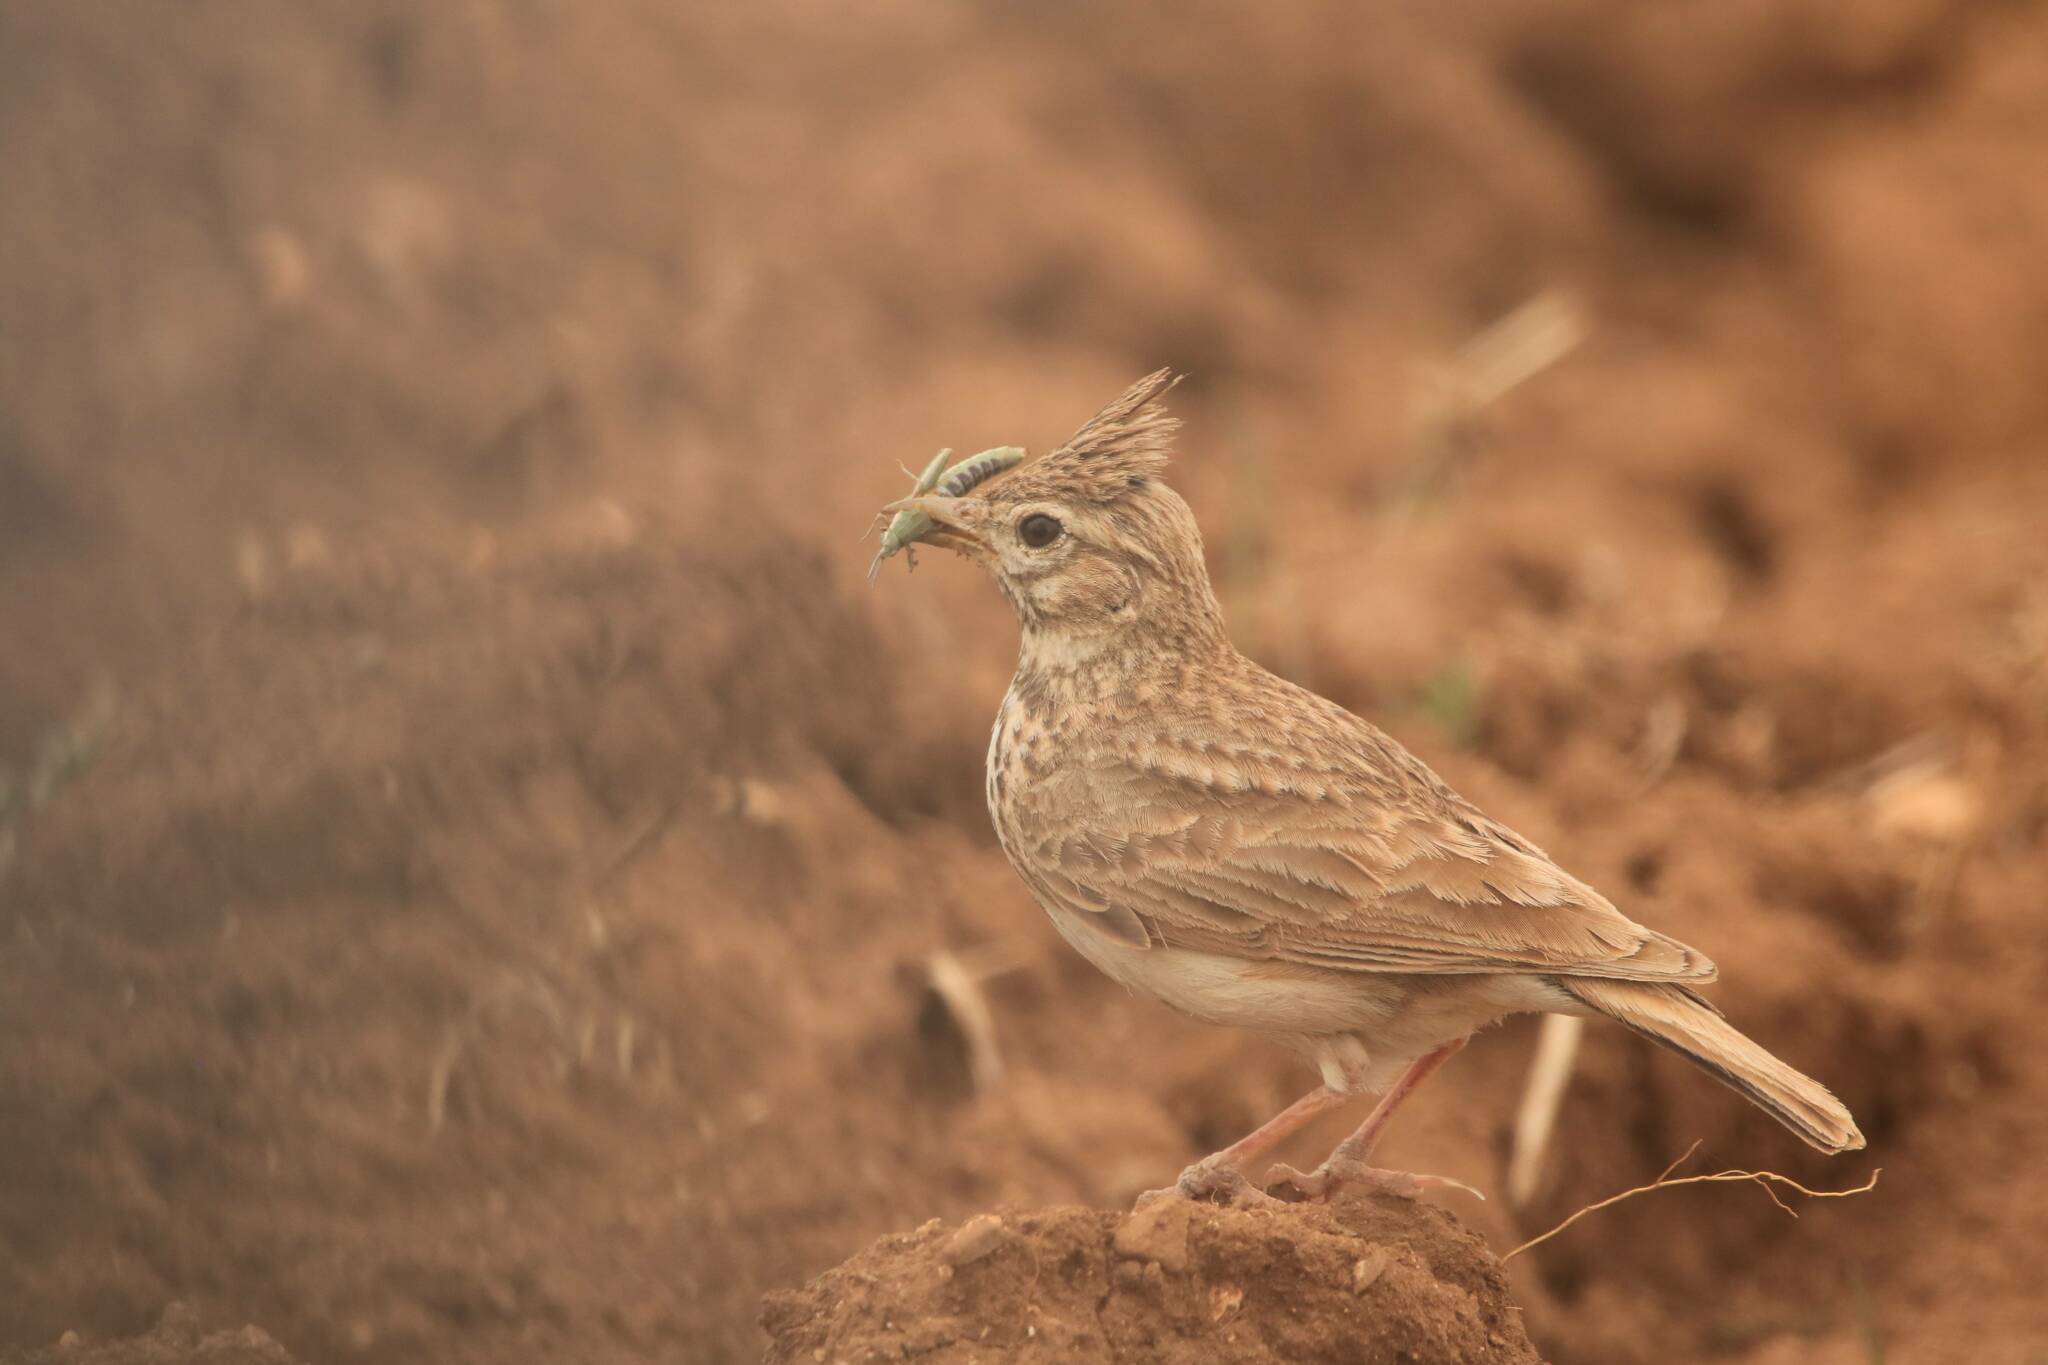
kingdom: Animalia
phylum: Chordata
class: Aves
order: Passeriformes
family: Alaudidae
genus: Galerida
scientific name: Galerida cristata
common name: Crested lark
